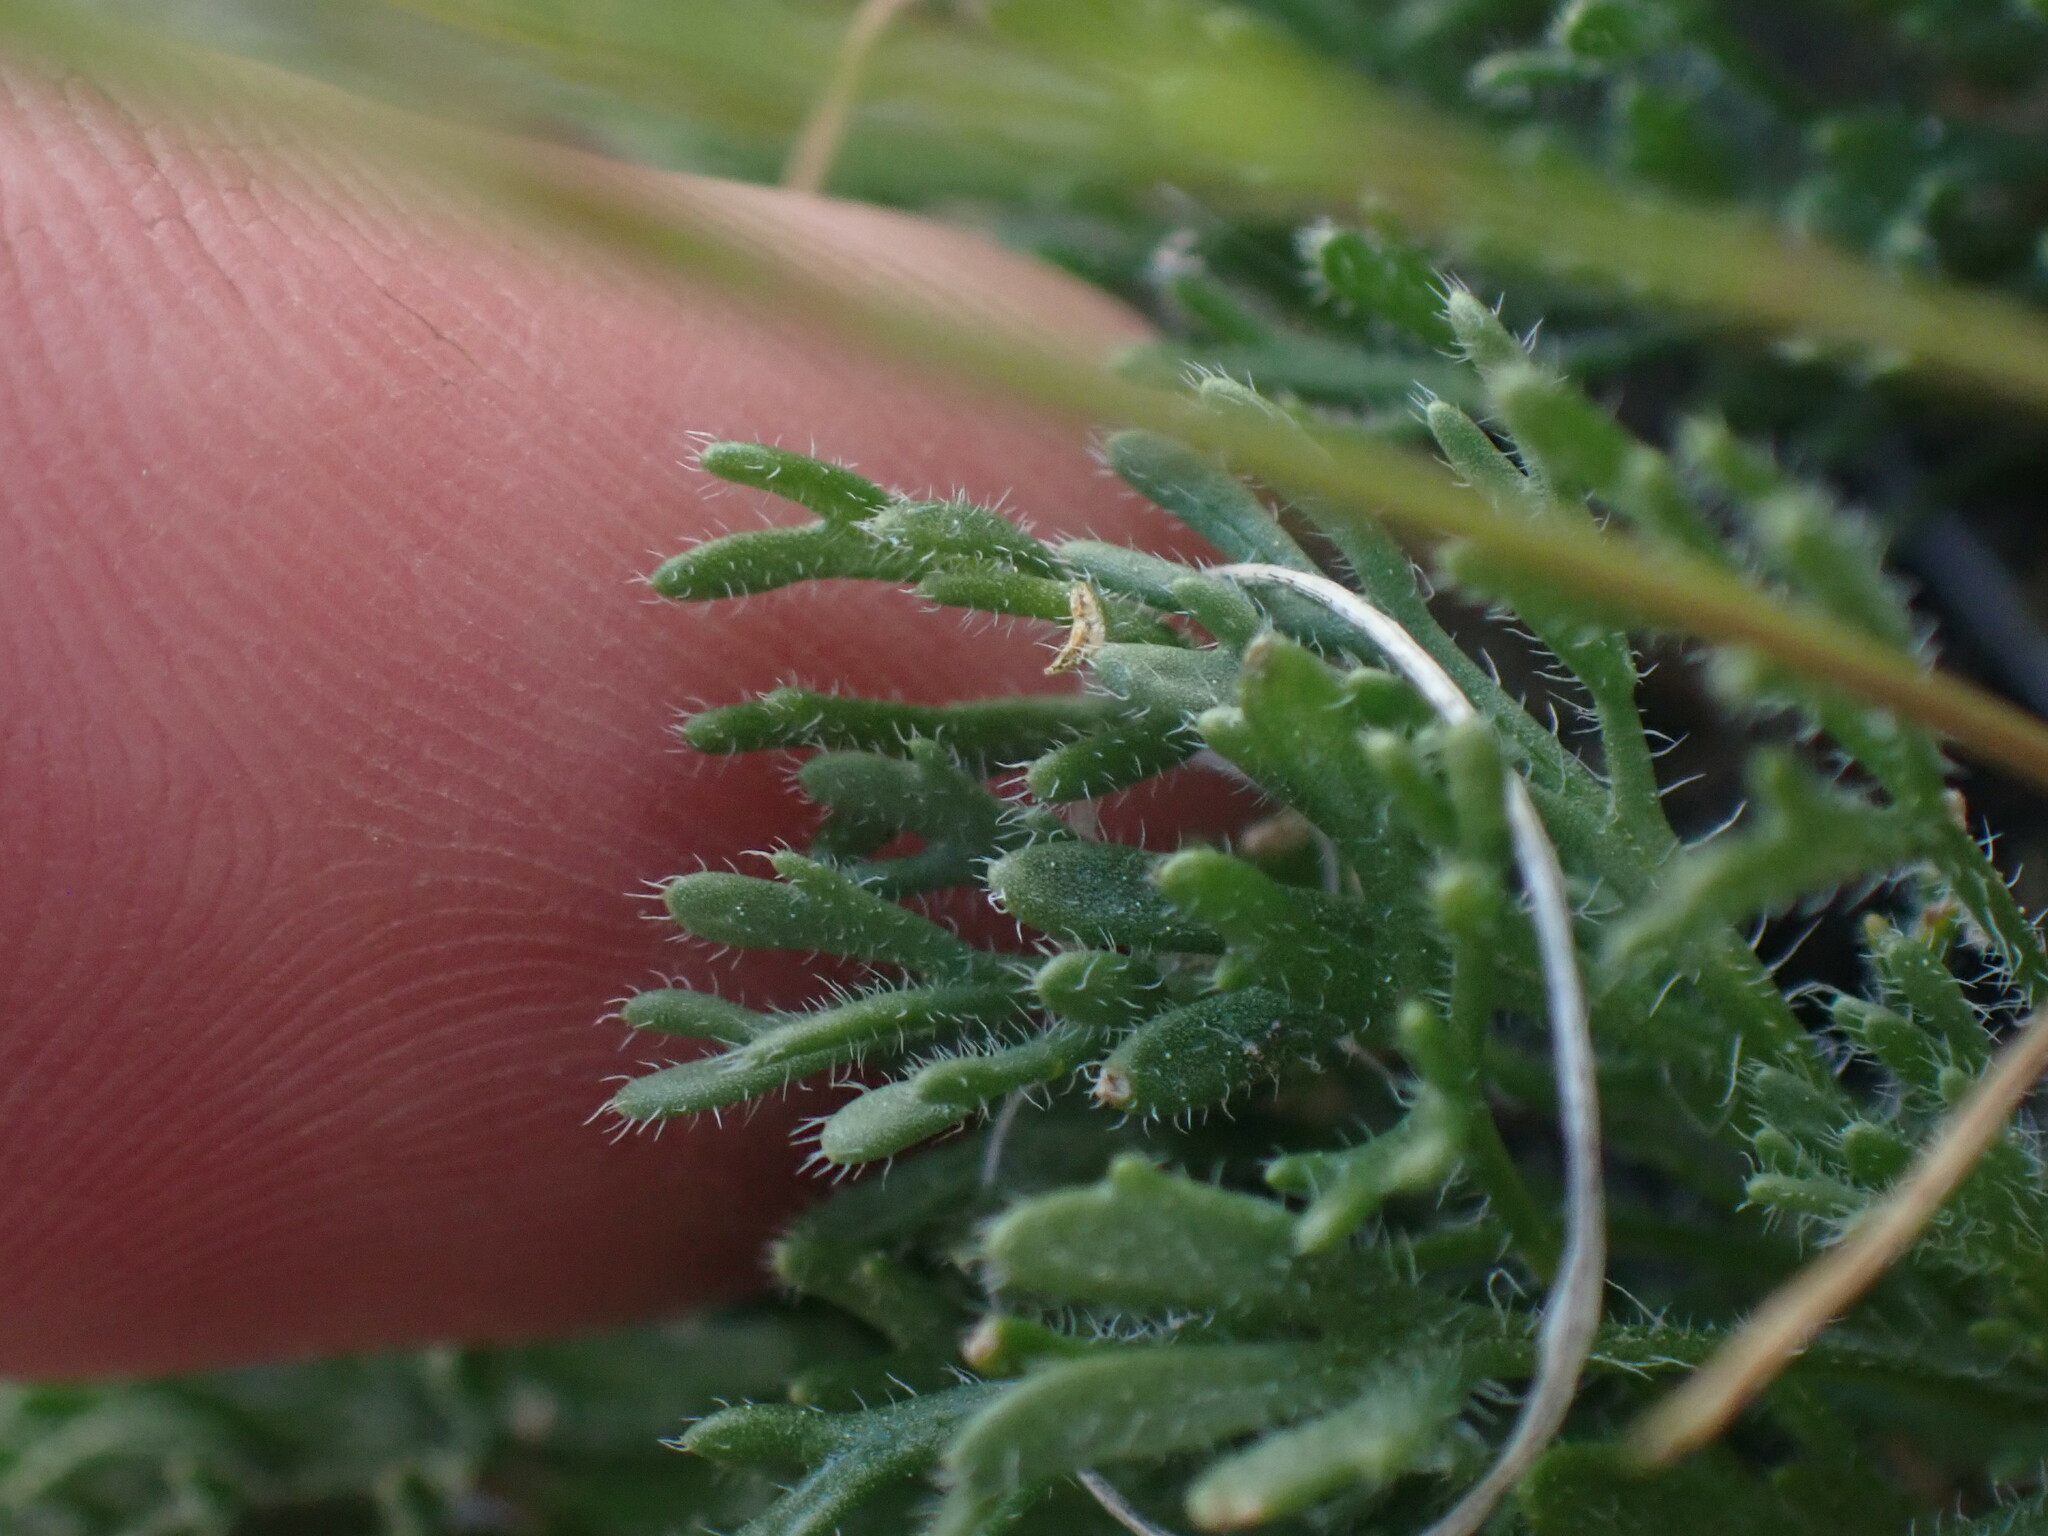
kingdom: Plantae
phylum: Tracheophyta
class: Magnoliopsida
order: Asterales
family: Asteraceae
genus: Erigeron
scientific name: Erigeron compositus
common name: Dwarf mountain fleabane
